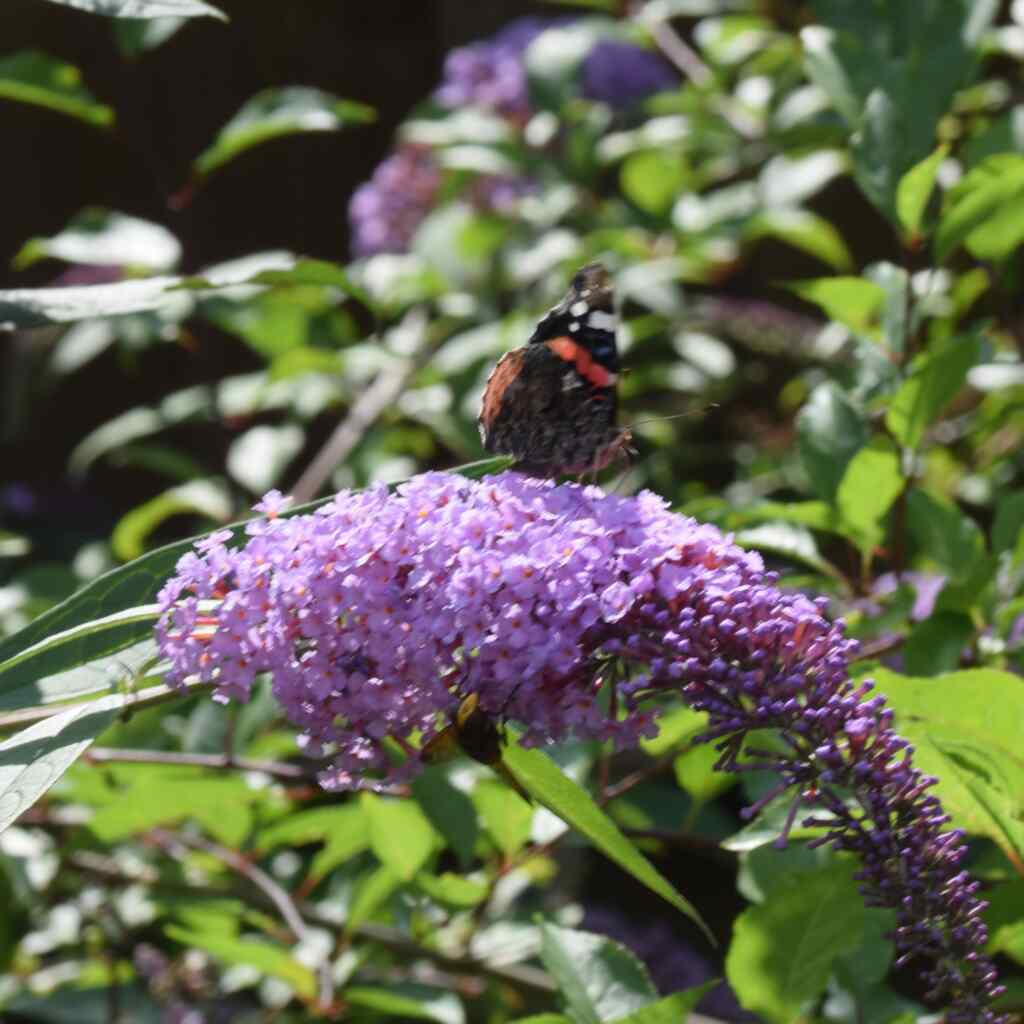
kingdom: Animalia
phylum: Arthropoda
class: Insecta
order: Lepidoptera
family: Nymphalidae
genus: Vanessa
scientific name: Vanessa atalanta
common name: Red admiral
